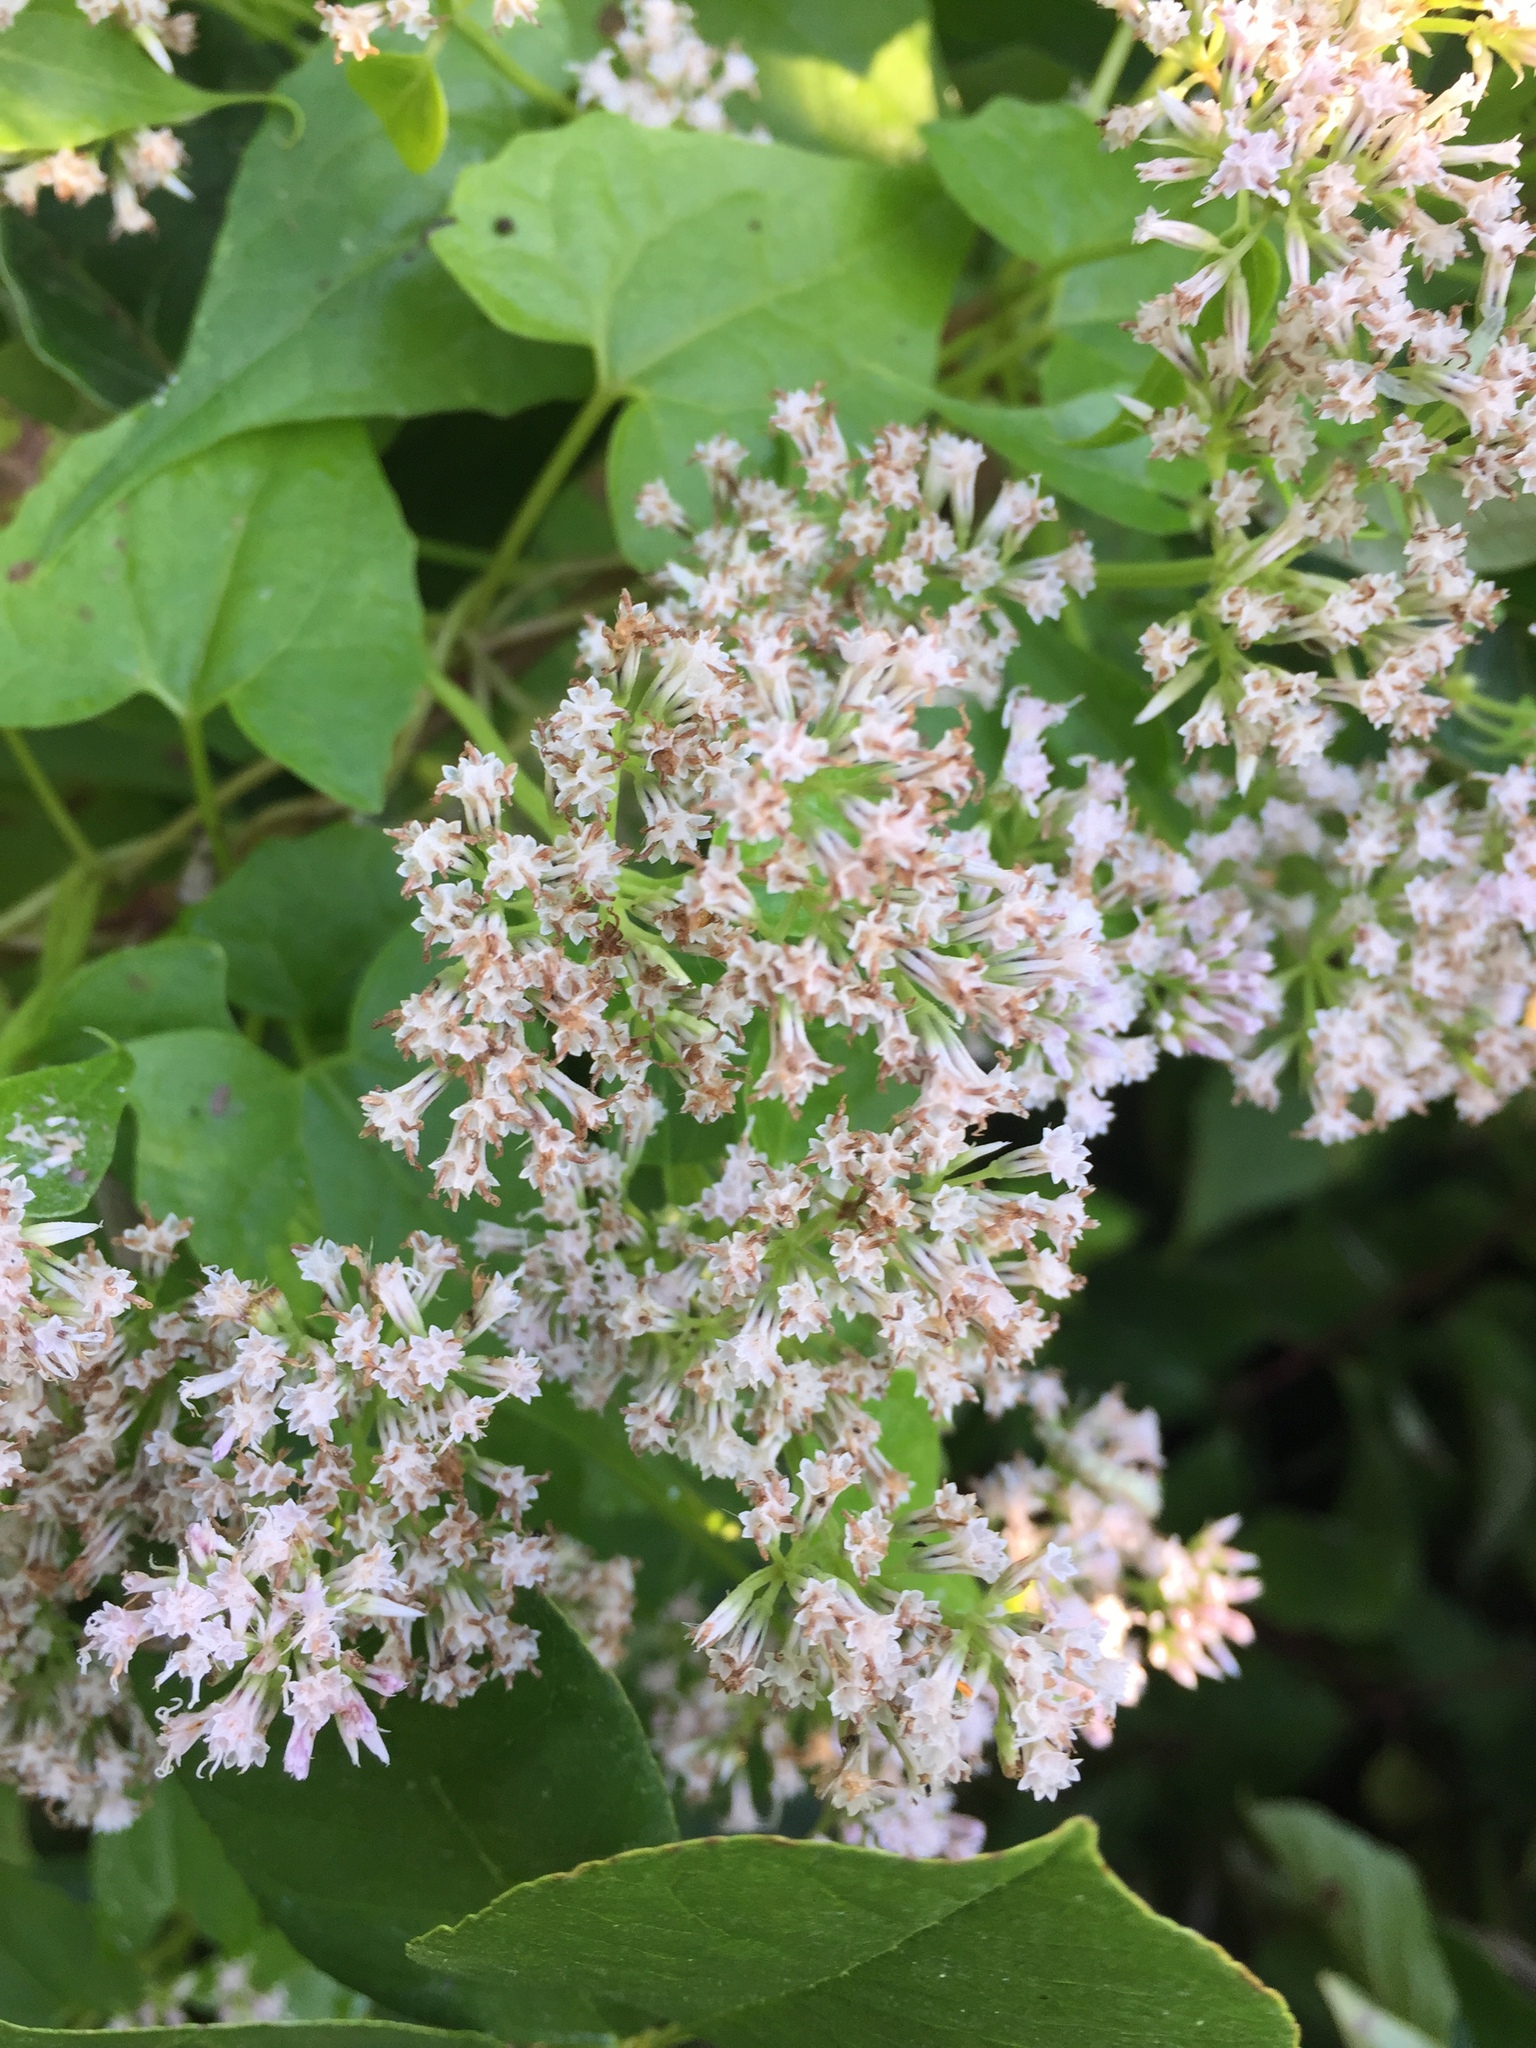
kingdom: Plantae
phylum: Tracheophyta
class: Magnoliopsida
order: Asterales
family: Asteraceae
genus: Mikania
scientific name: Mikania scandens
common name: Climbing hempvine
